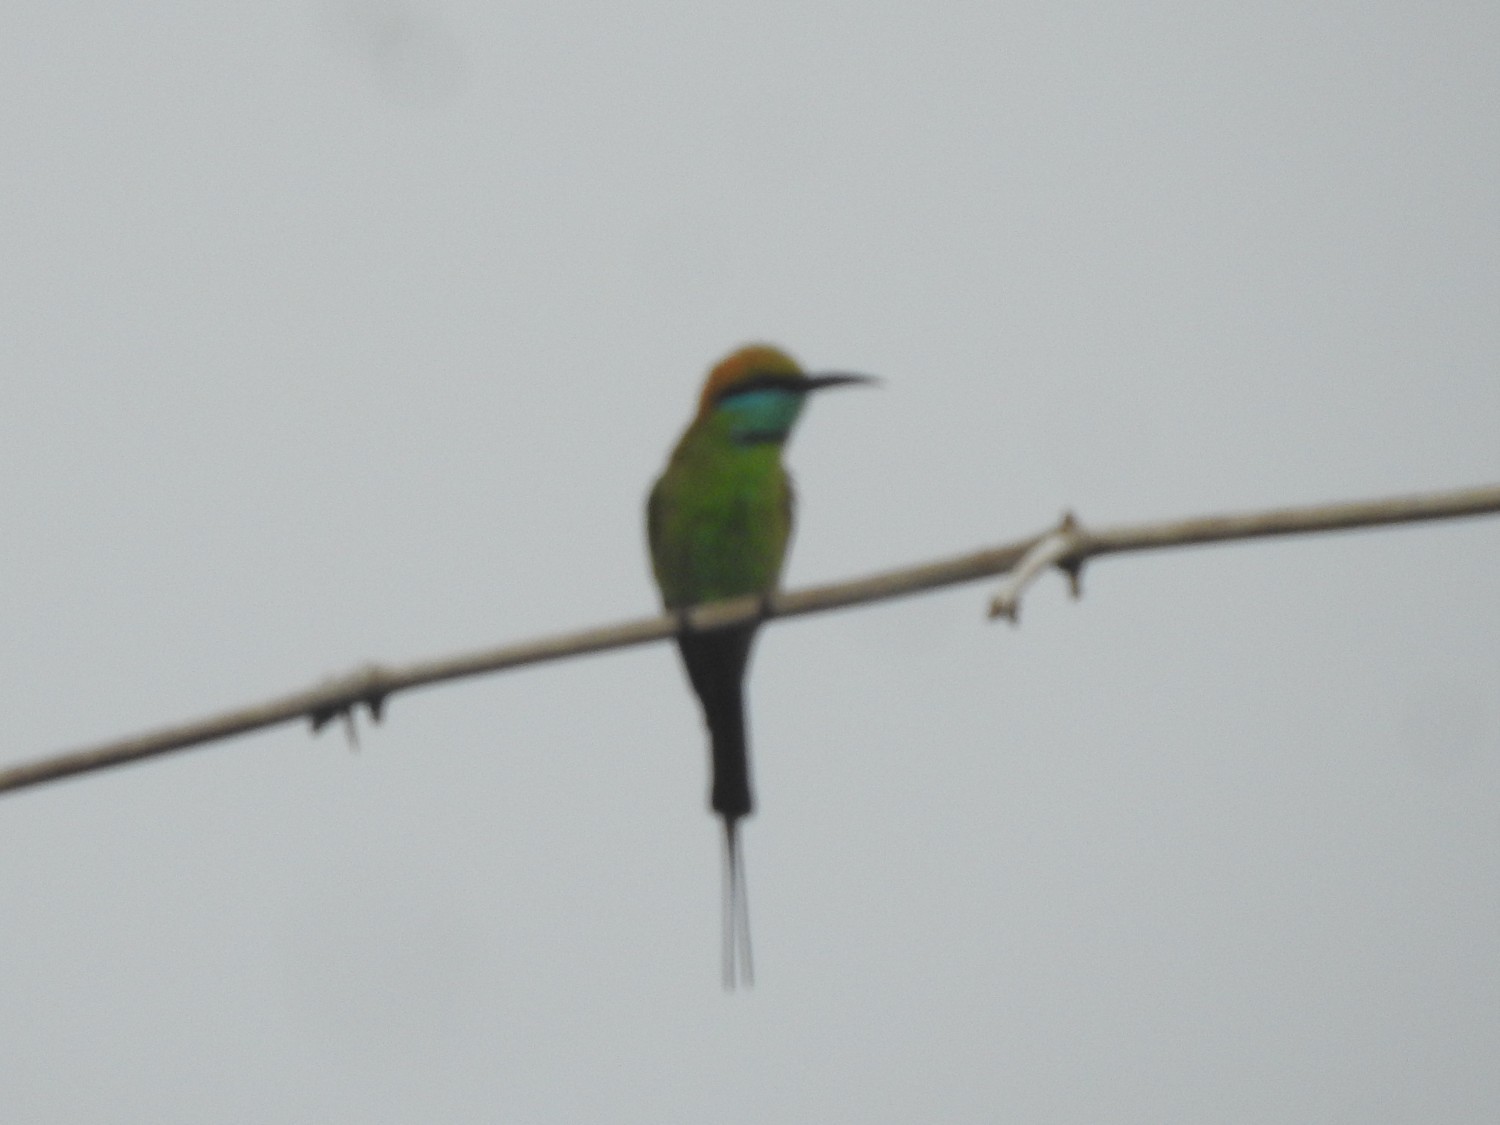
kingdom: Animalia
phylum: Chordata
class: Aves
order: Coraciiformes
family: Meropidae
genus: Merops
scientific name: Merops orientalis
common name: Green bee-eater
